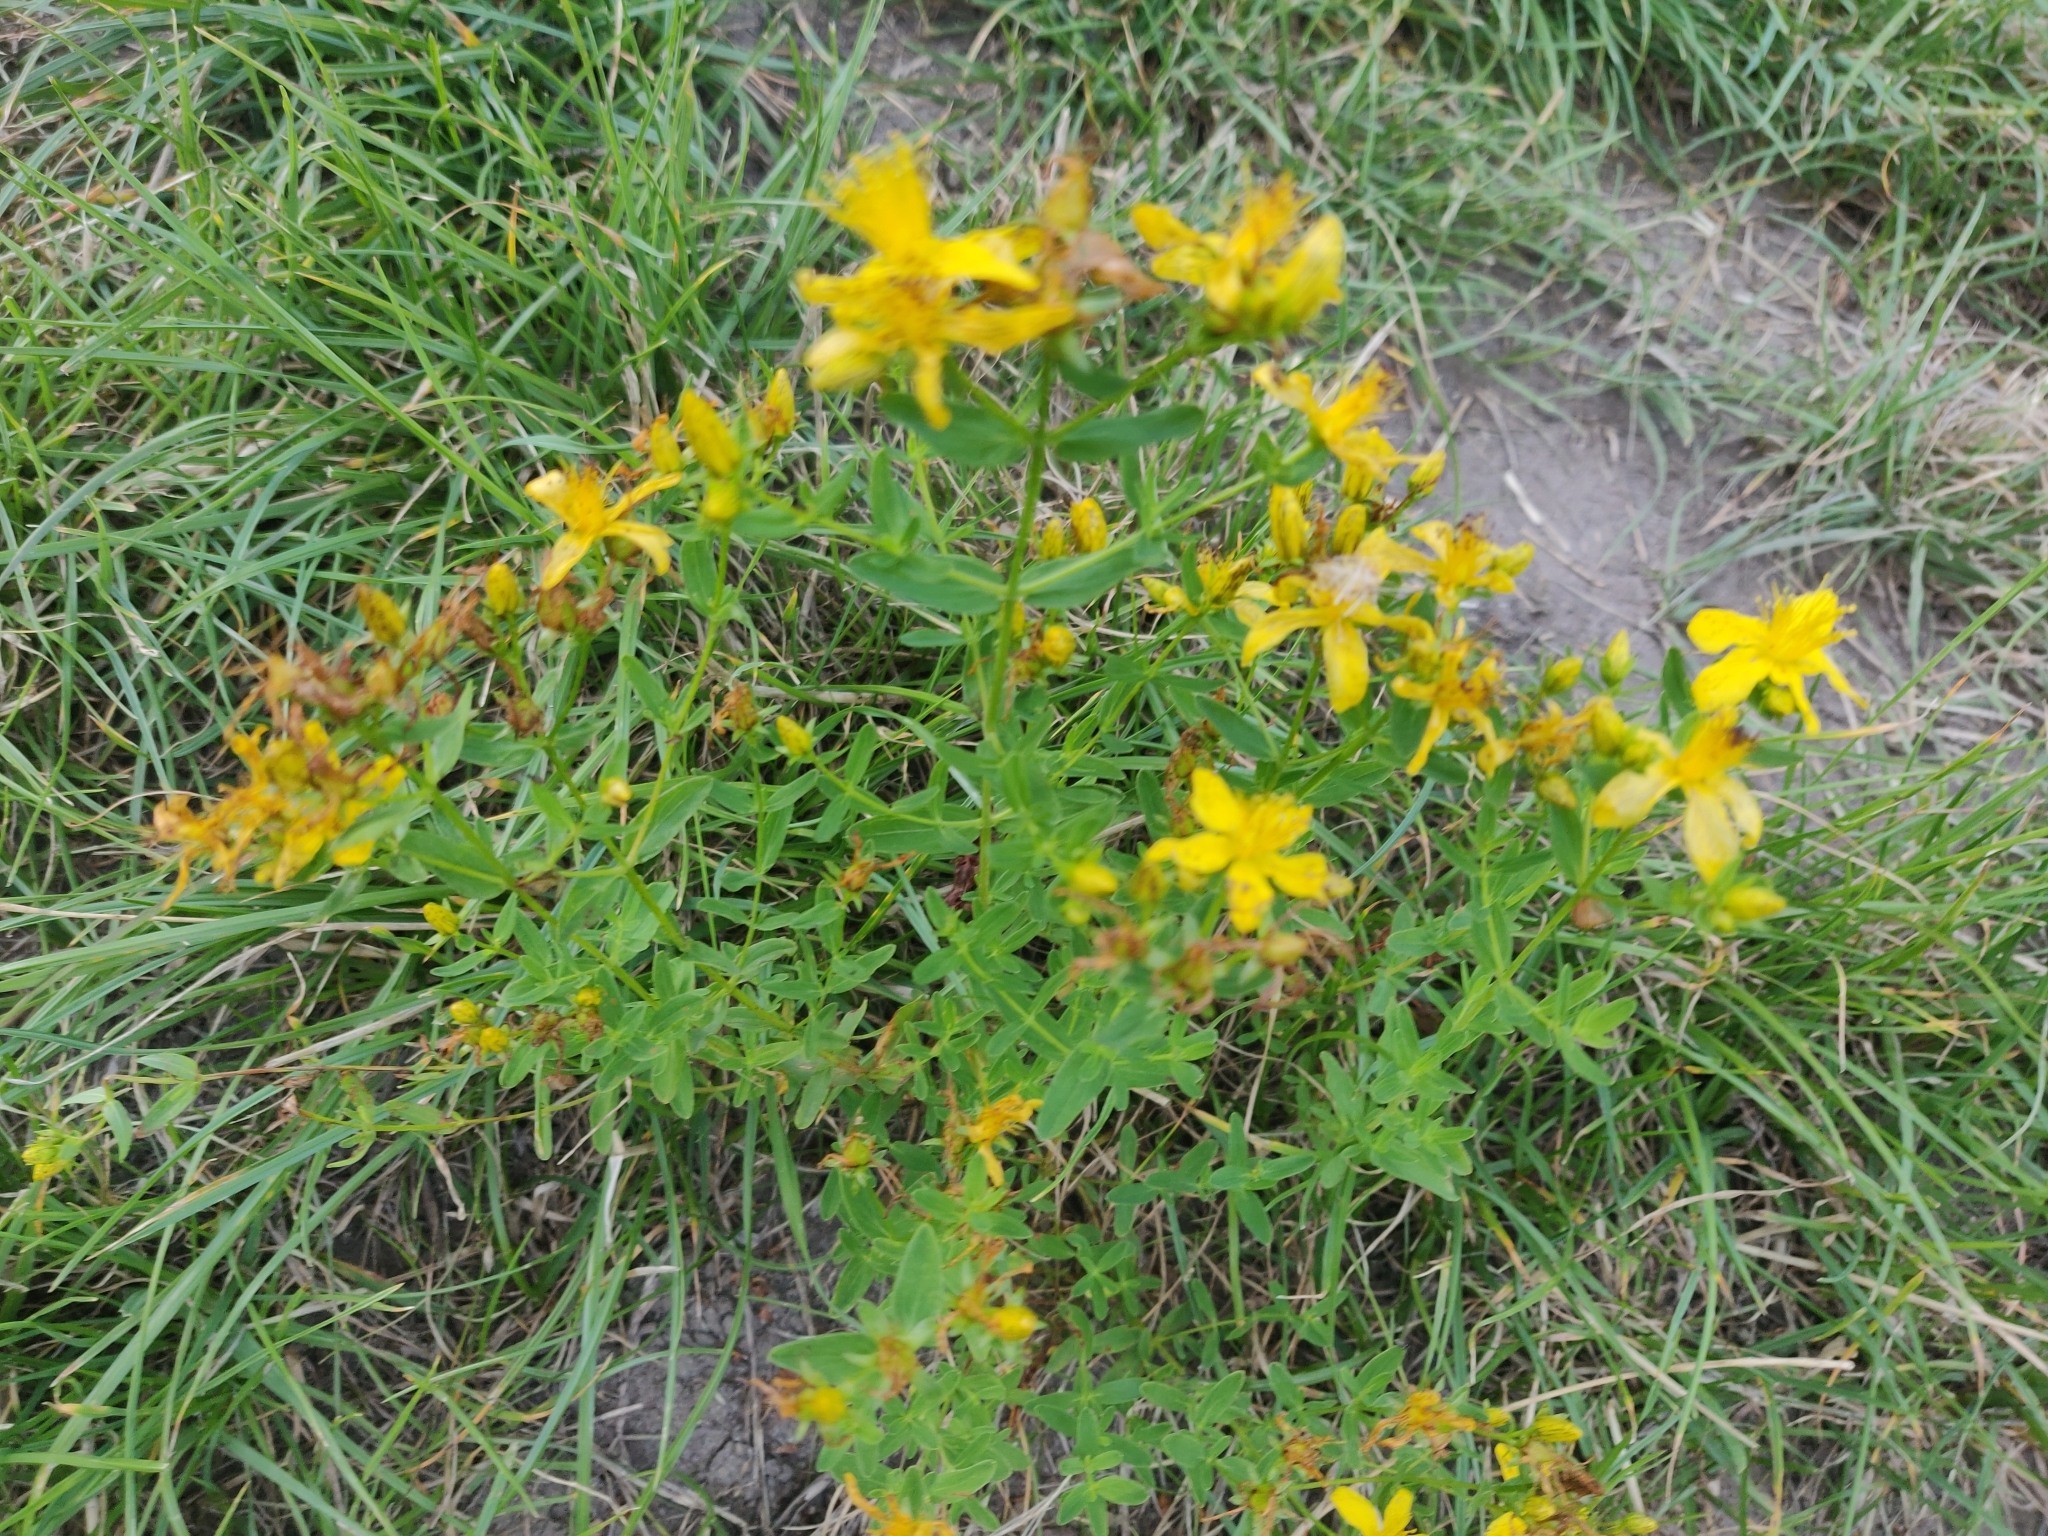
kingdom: Plantae
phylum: Tracheophyta
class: Magnoliopsida
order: Malpighiales
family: Hypericaceae
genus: Hypericum
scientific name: Hypericum perforatum
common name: Common st. johnswort
